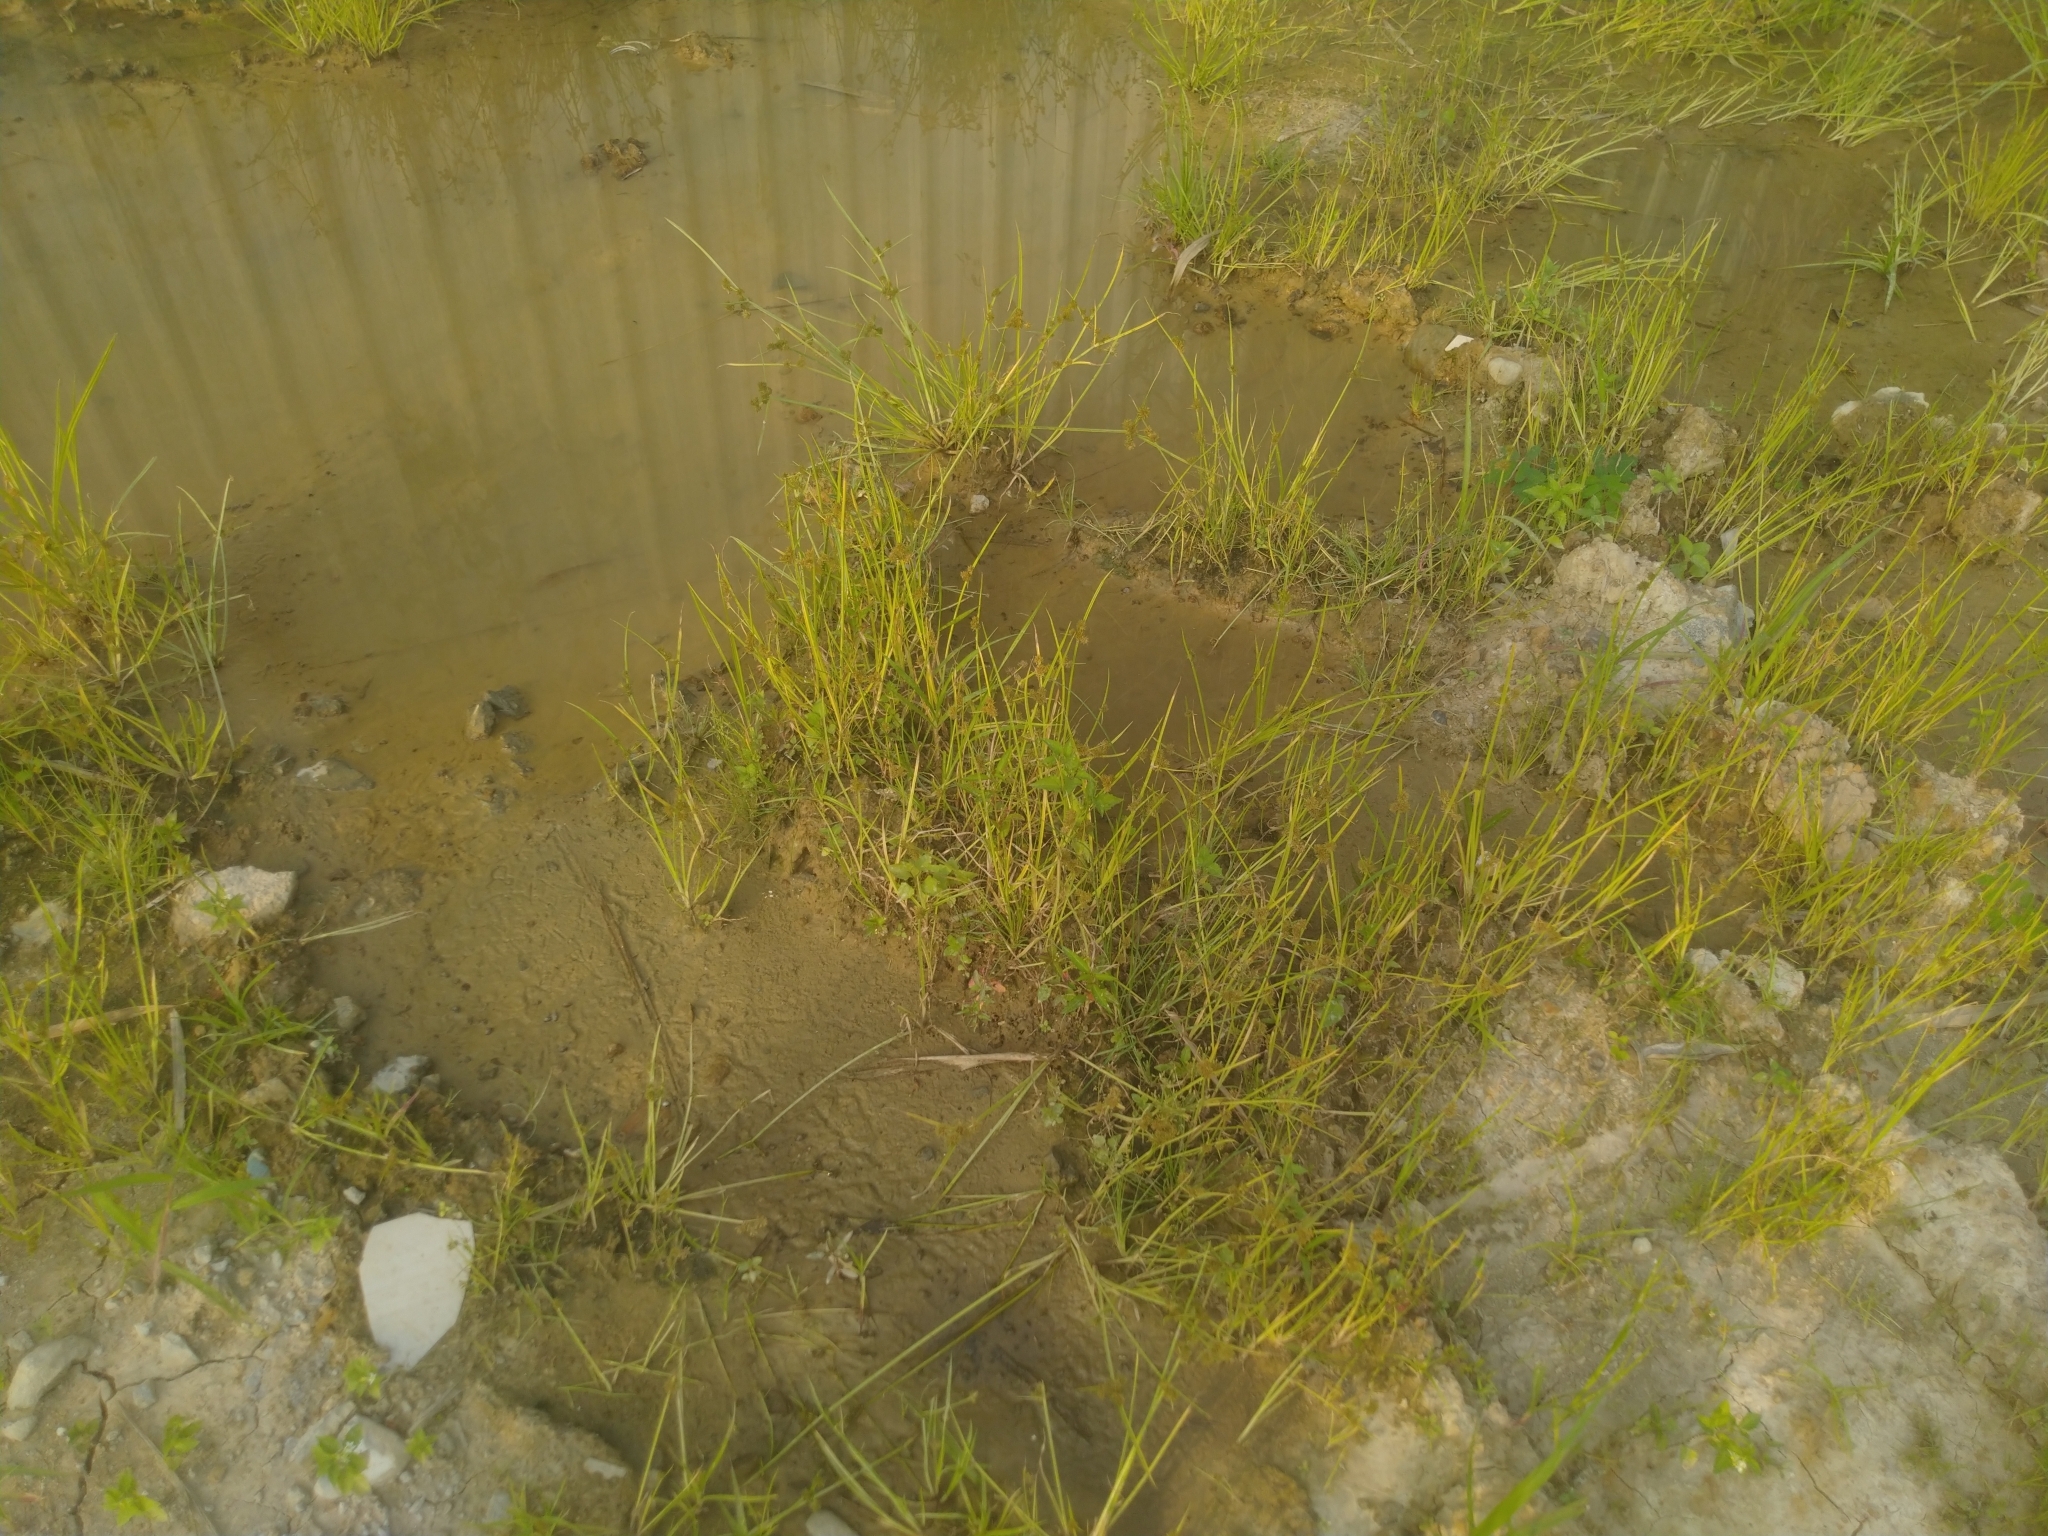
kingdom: Plantae
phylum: Tracheophyta
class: Liliopsida
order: Poales
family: Cyperaceae
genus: Cyperus
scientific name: Cyperus difformis
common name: Variable flatsedge
